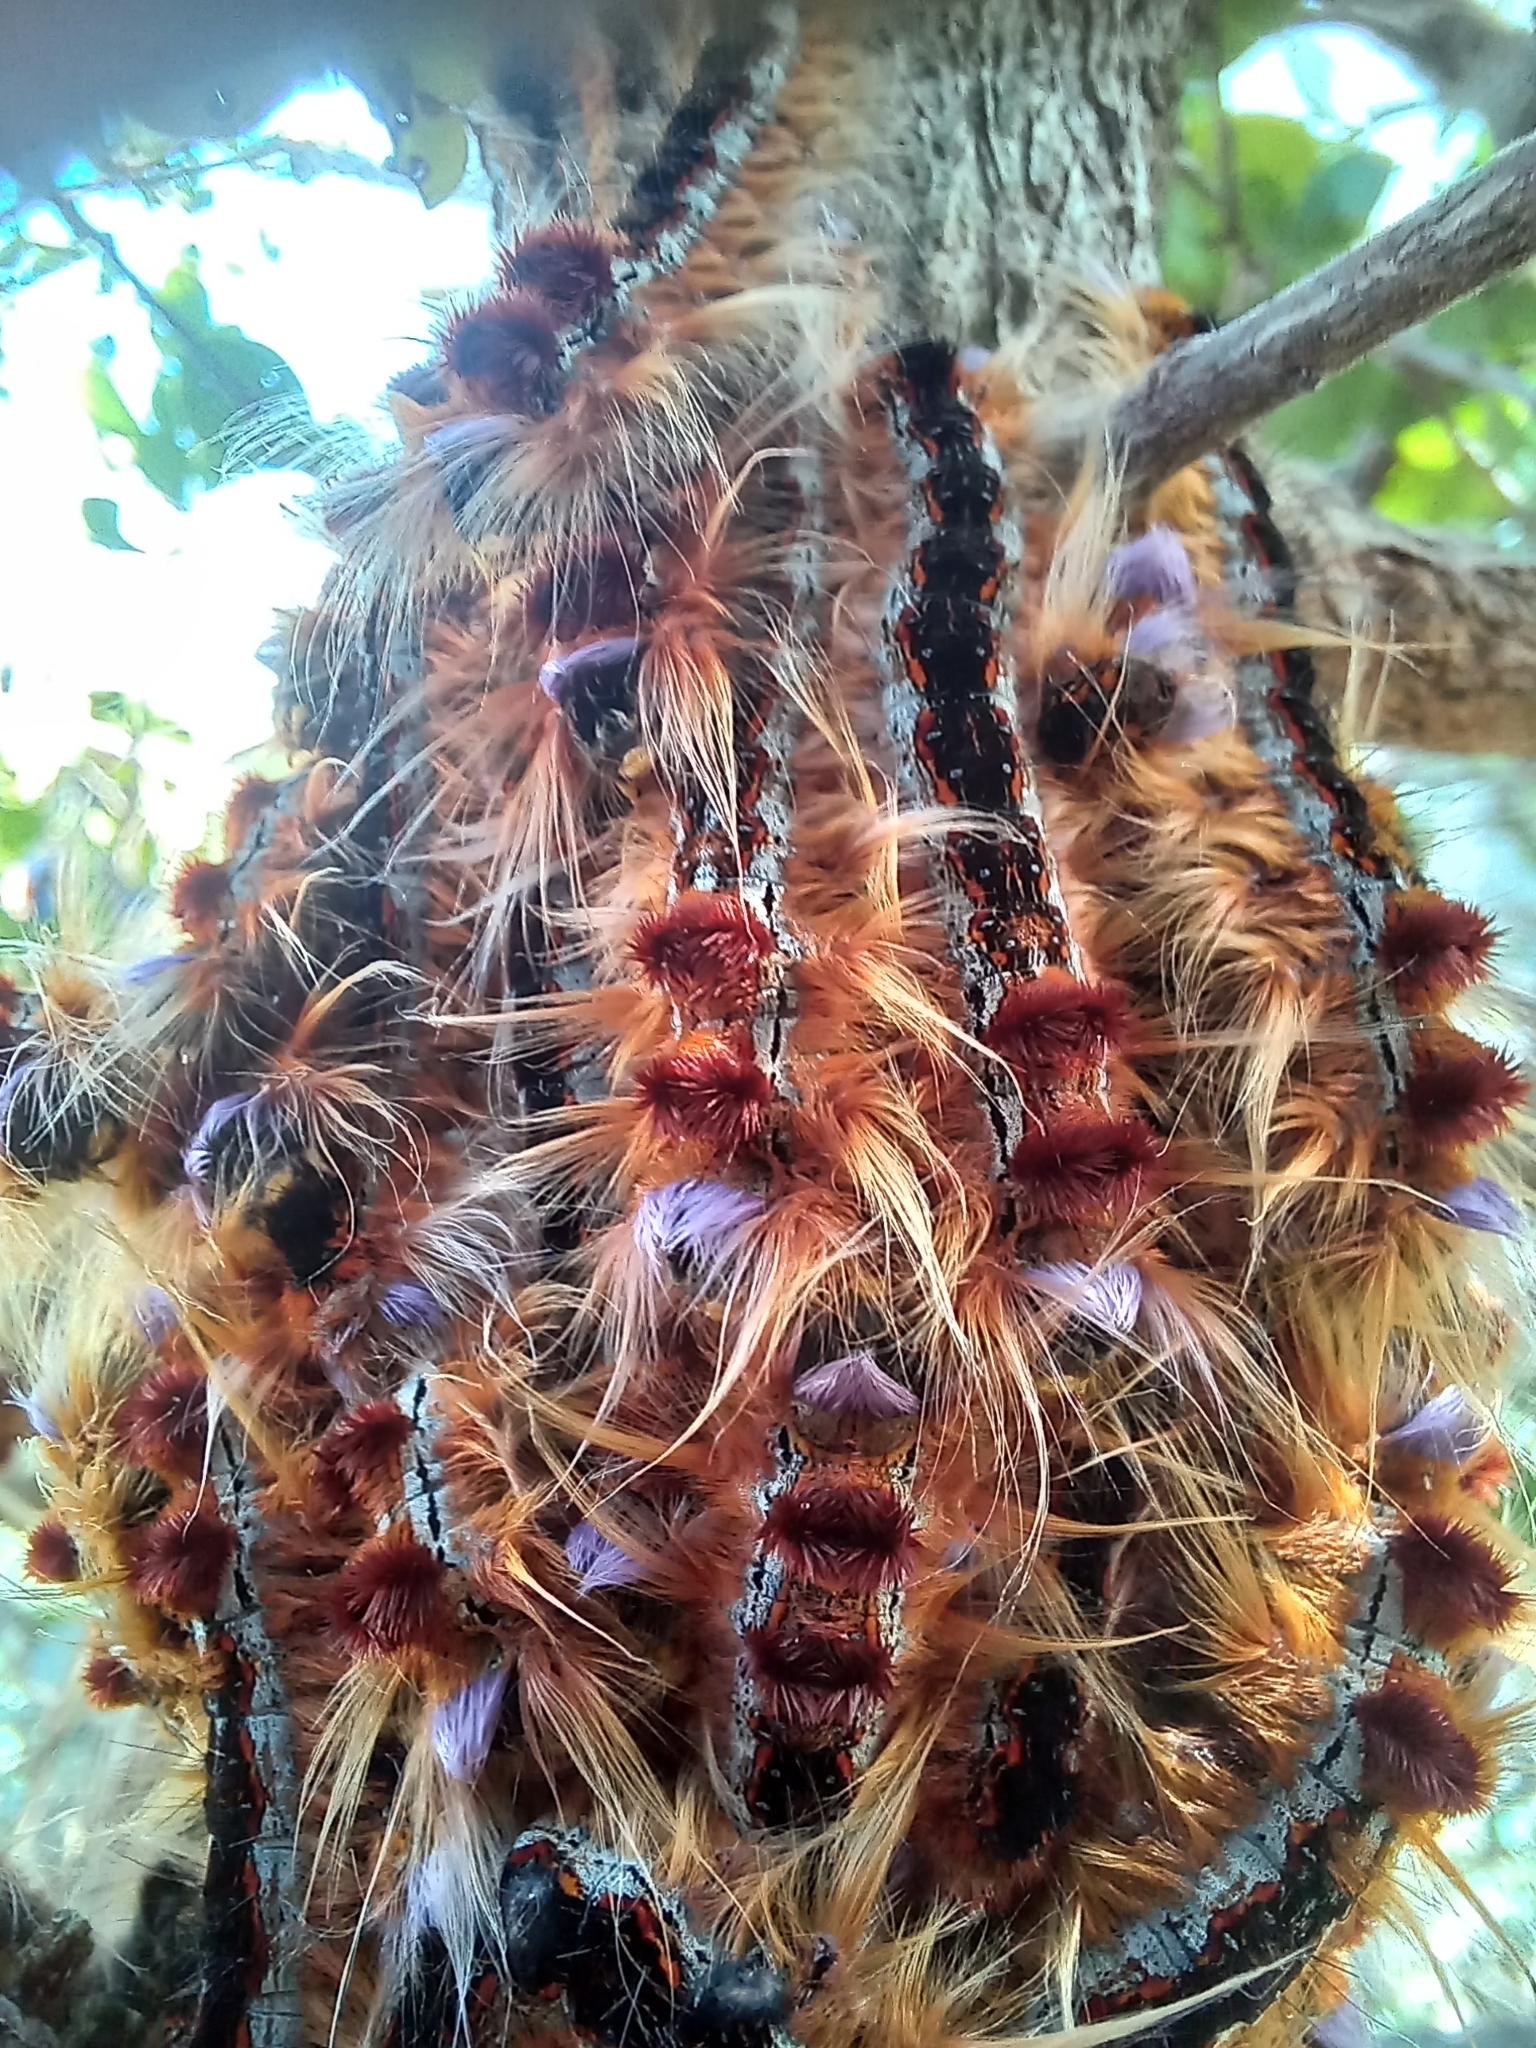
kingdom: Animalia
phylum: Arthropoda
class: Insecta
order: Lepidoptera
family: Lasiocampidae
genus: Eutricha
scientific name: Eutricha capensis
